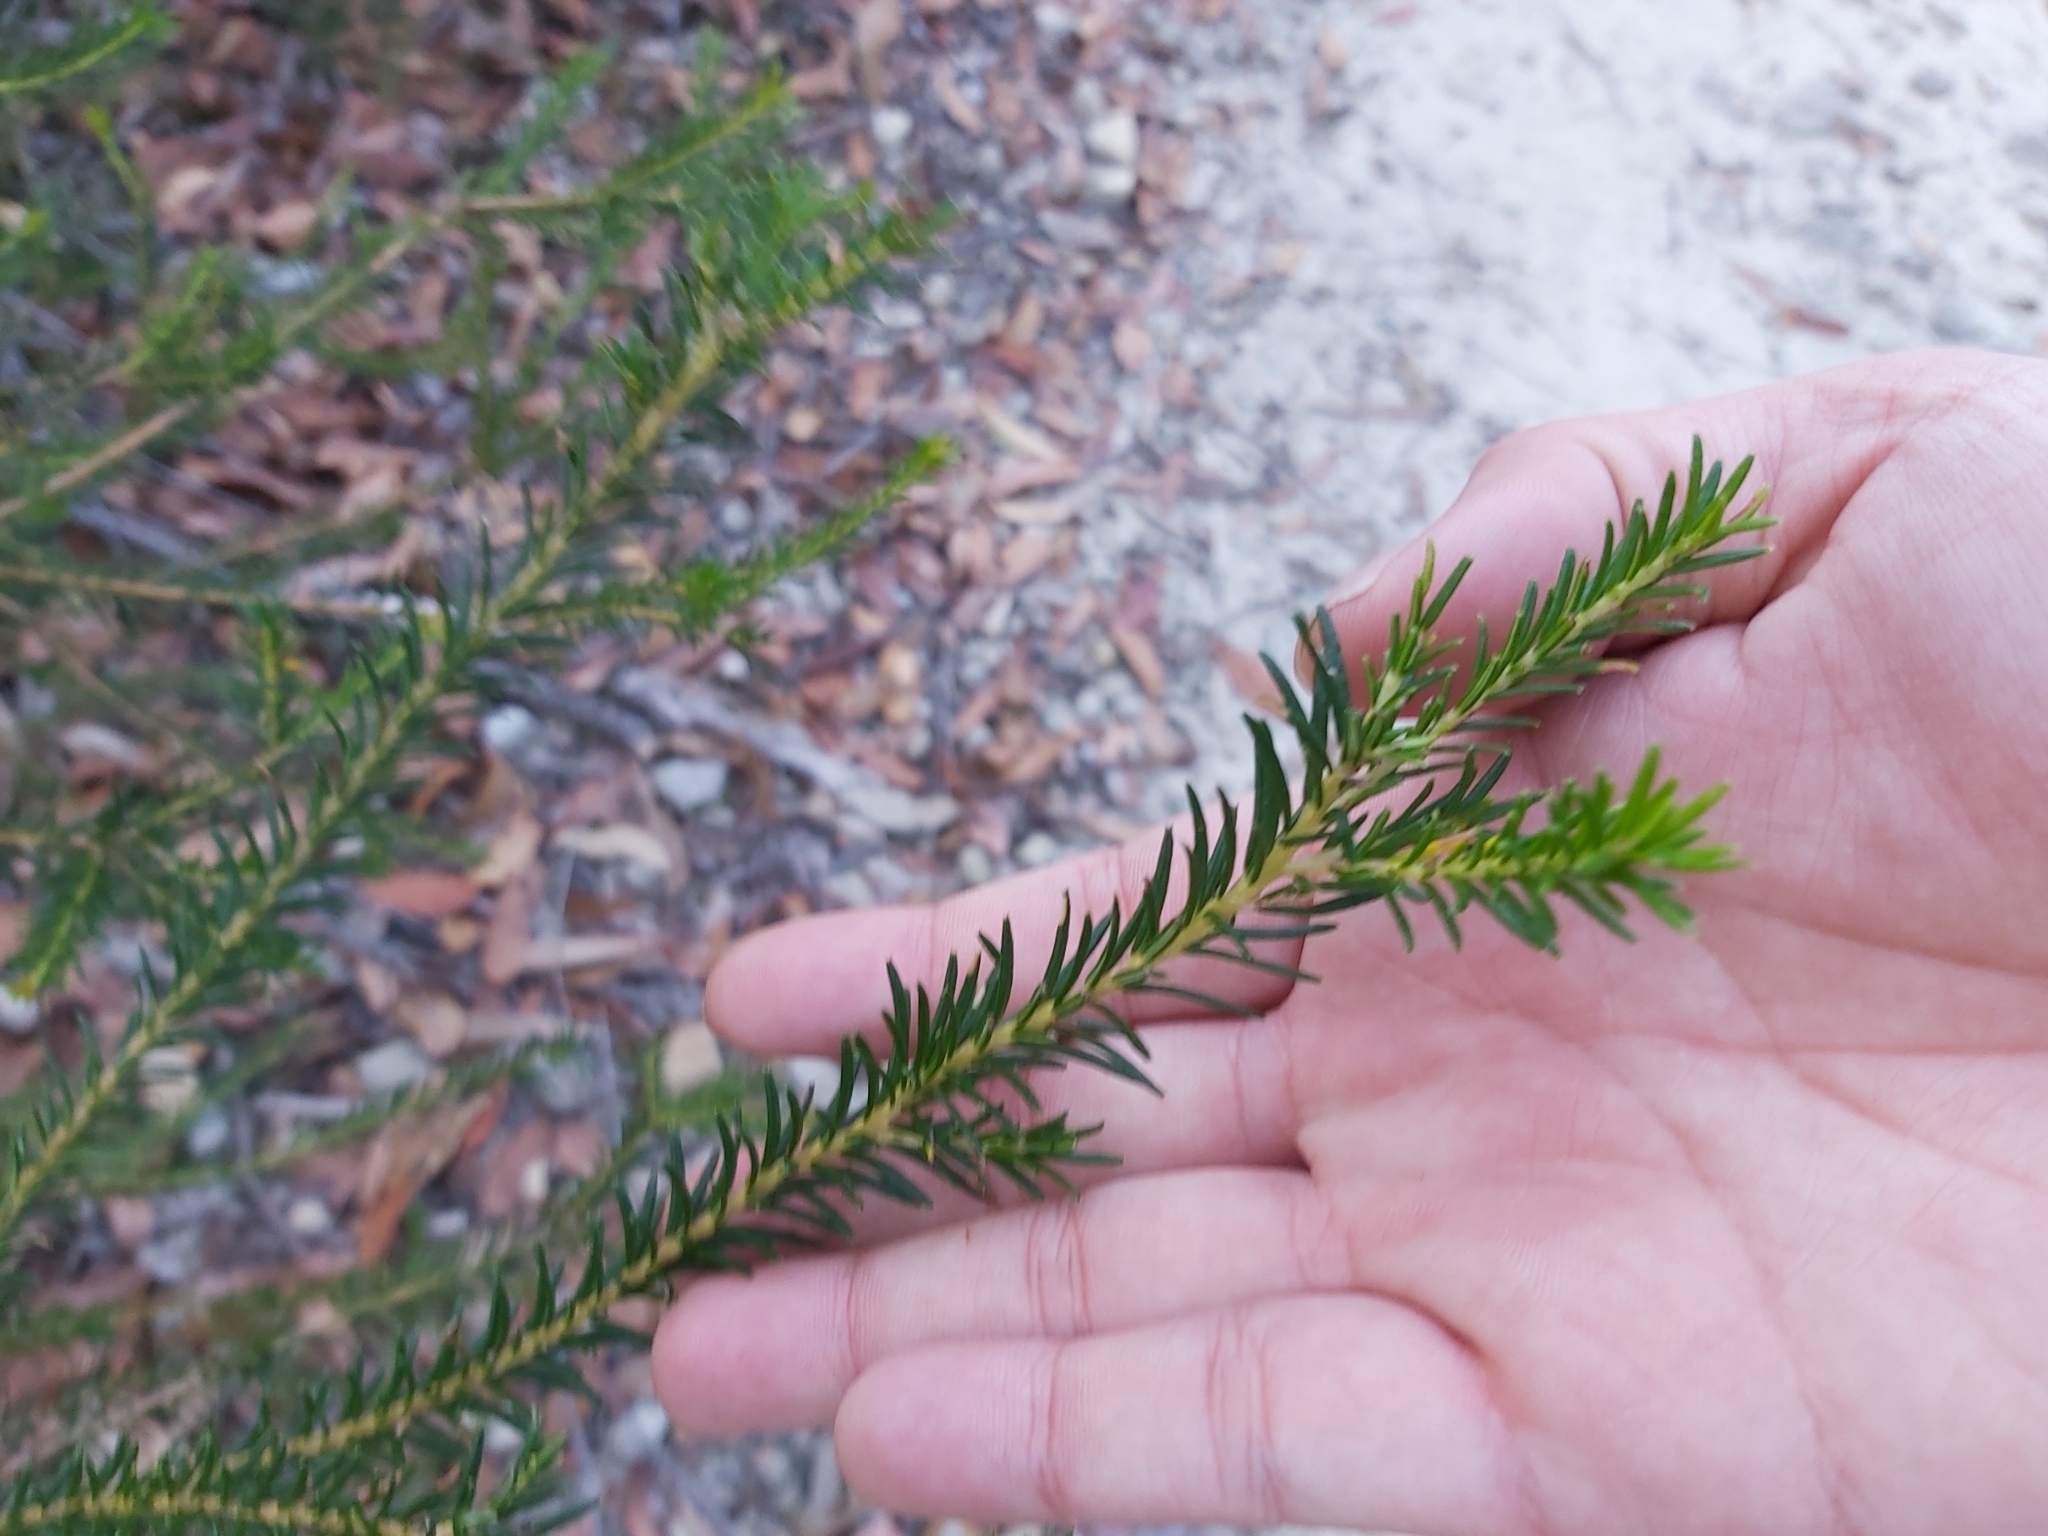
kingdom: Plantae
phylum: Tracheophyta
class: Magnoliopsida
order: Proteales
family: Proteaceae
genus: Banksia
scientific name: Banksia ericifolia
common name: Heath-leaf banksia
